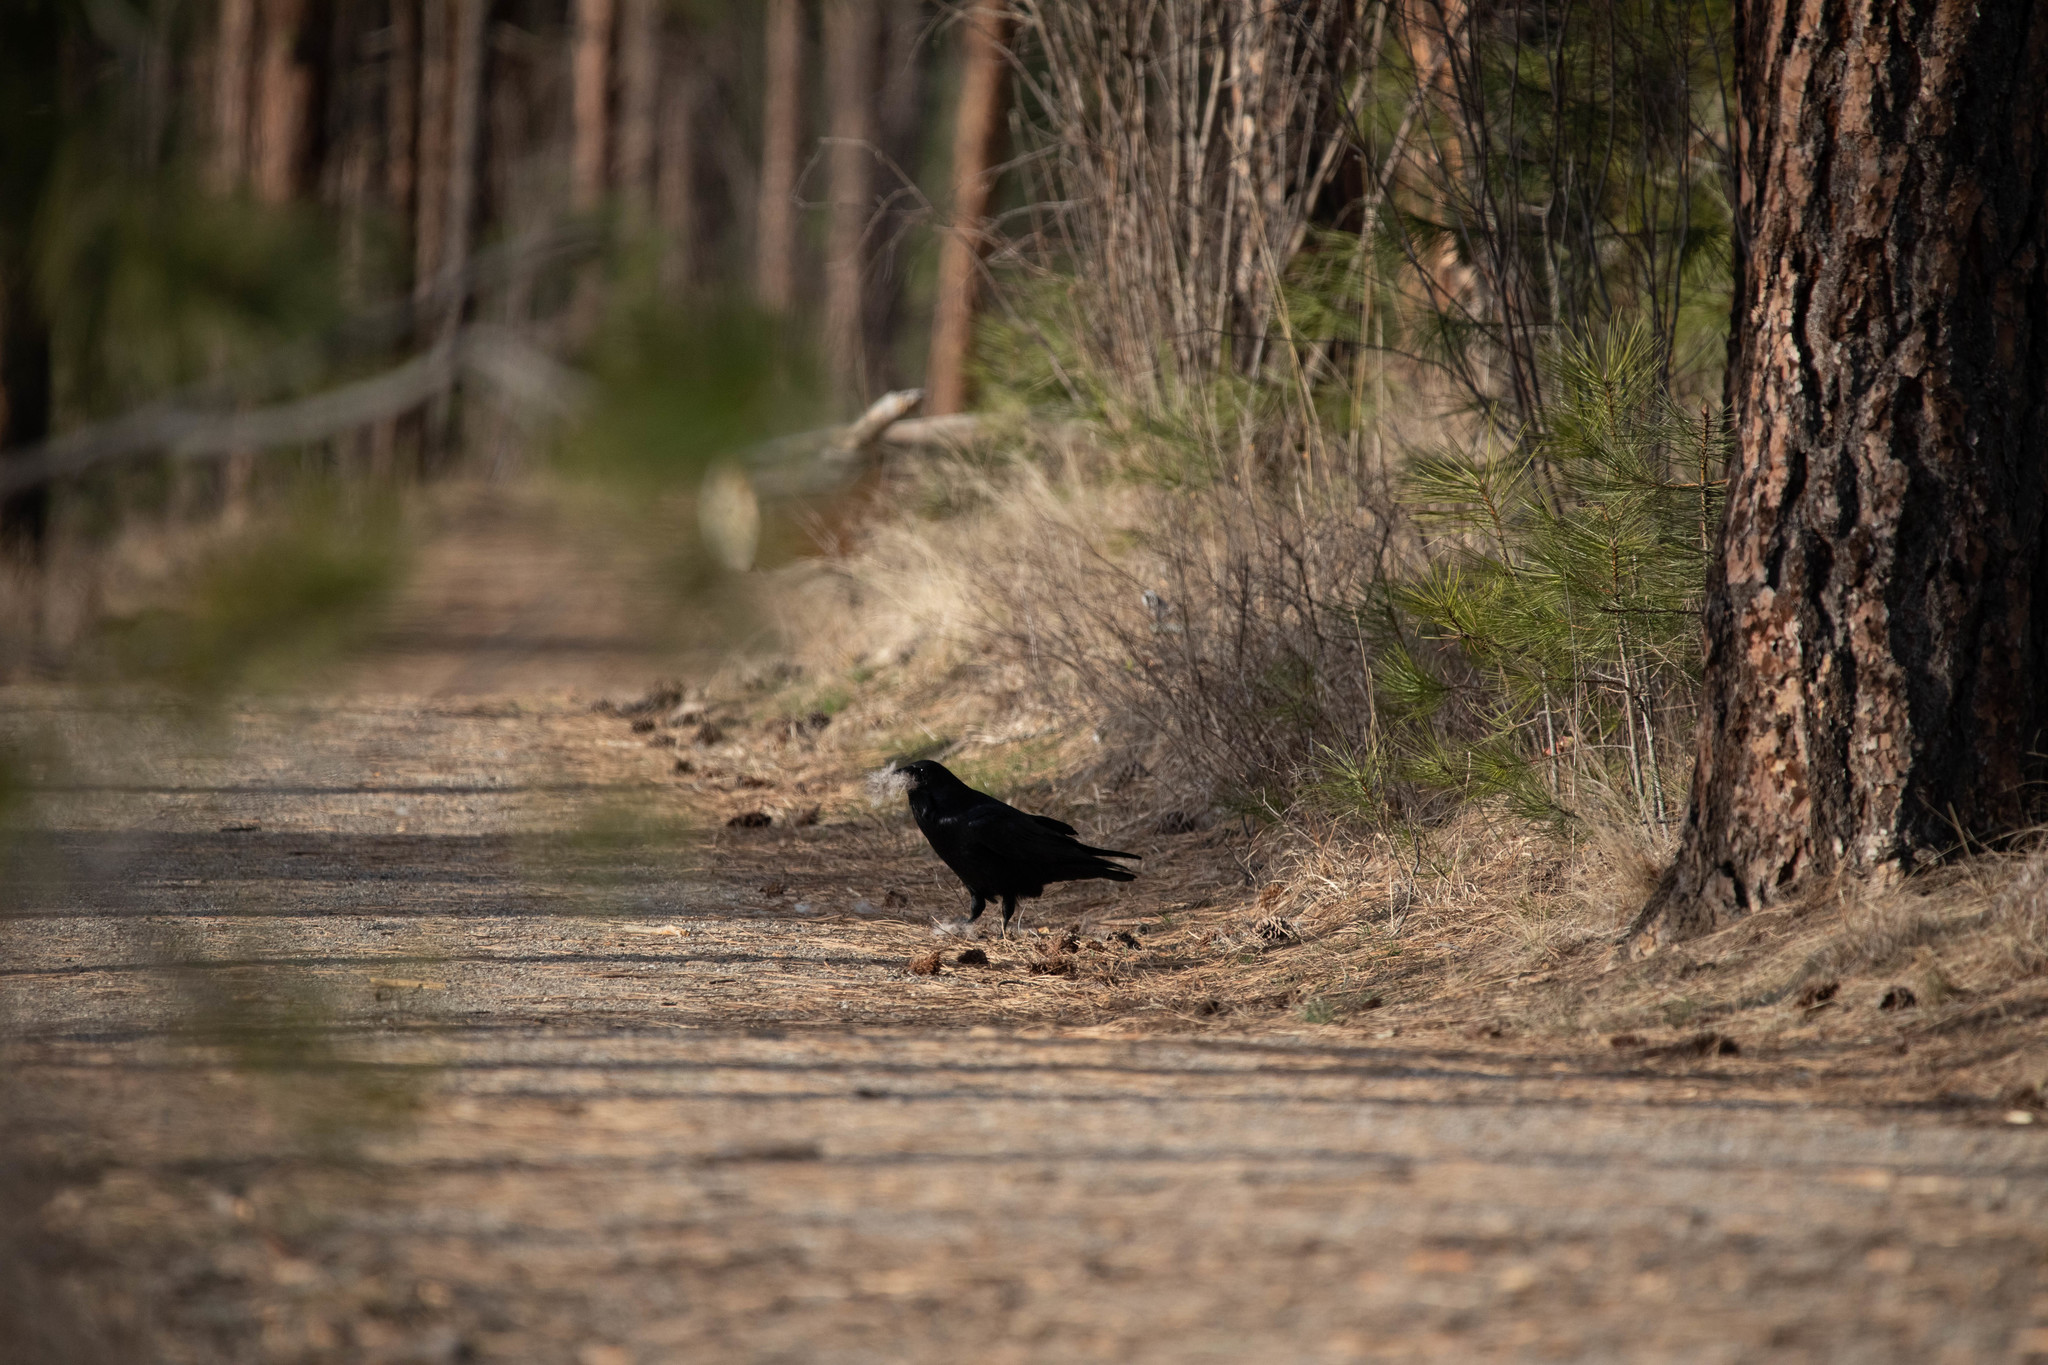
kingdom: Animalia
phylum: Chordata
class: Aves
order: Passeriformes
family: Corvidae
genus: Corvus
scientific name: Corvus corax
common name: Common raven
